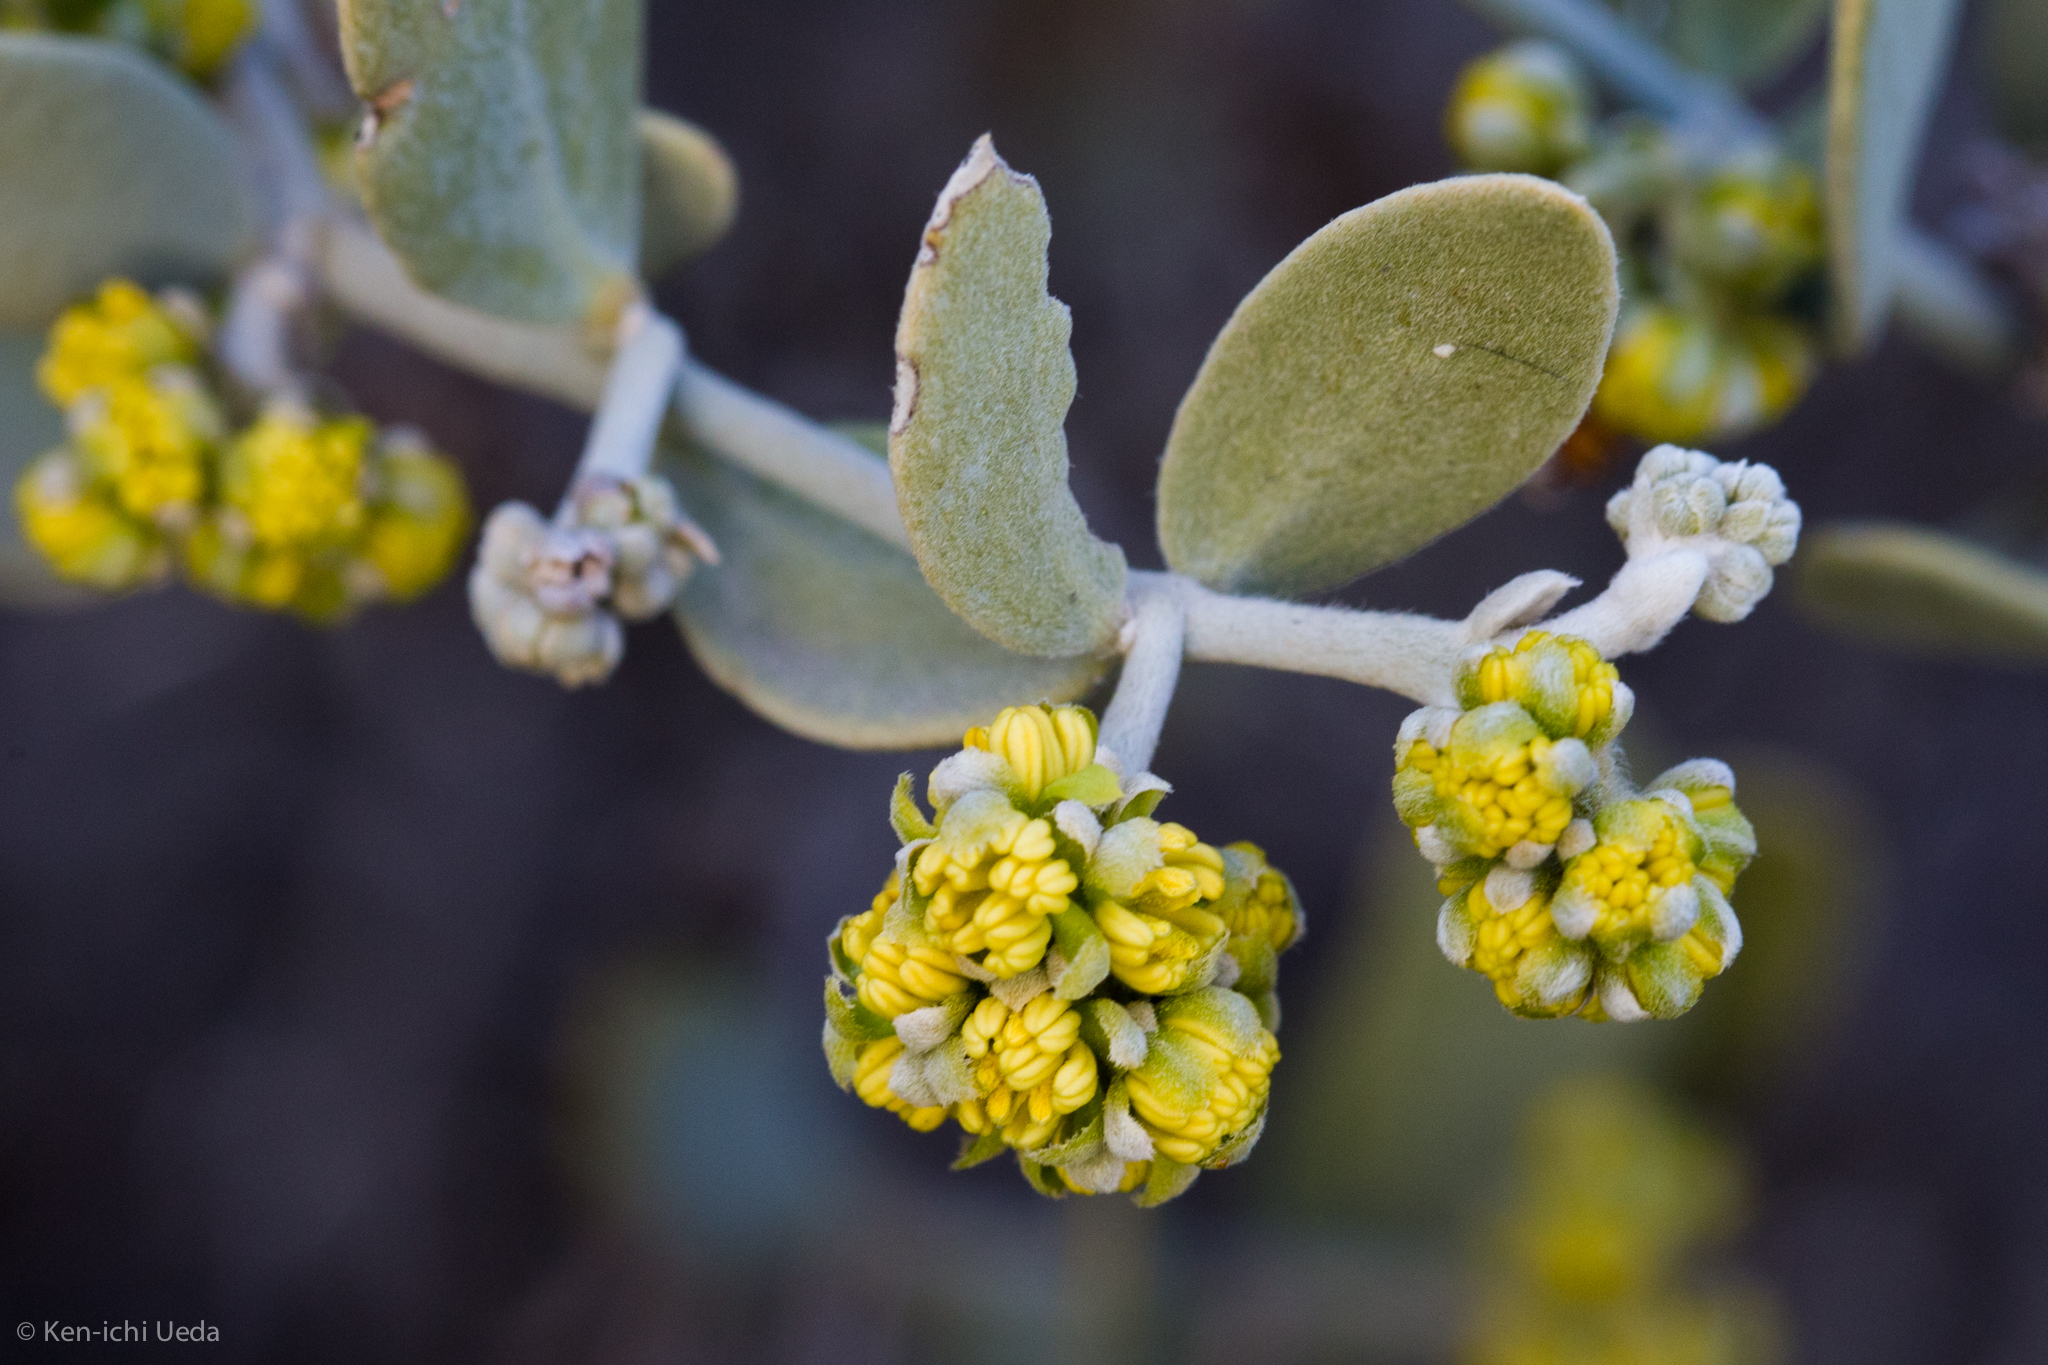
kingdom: Plantae
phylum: Tracheophyta
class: Magnoliopsida
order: Caryophyllales
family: Simmondsiaceae
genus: Simmondsia
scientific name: Simmondsia chinensis
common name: Jojoba
